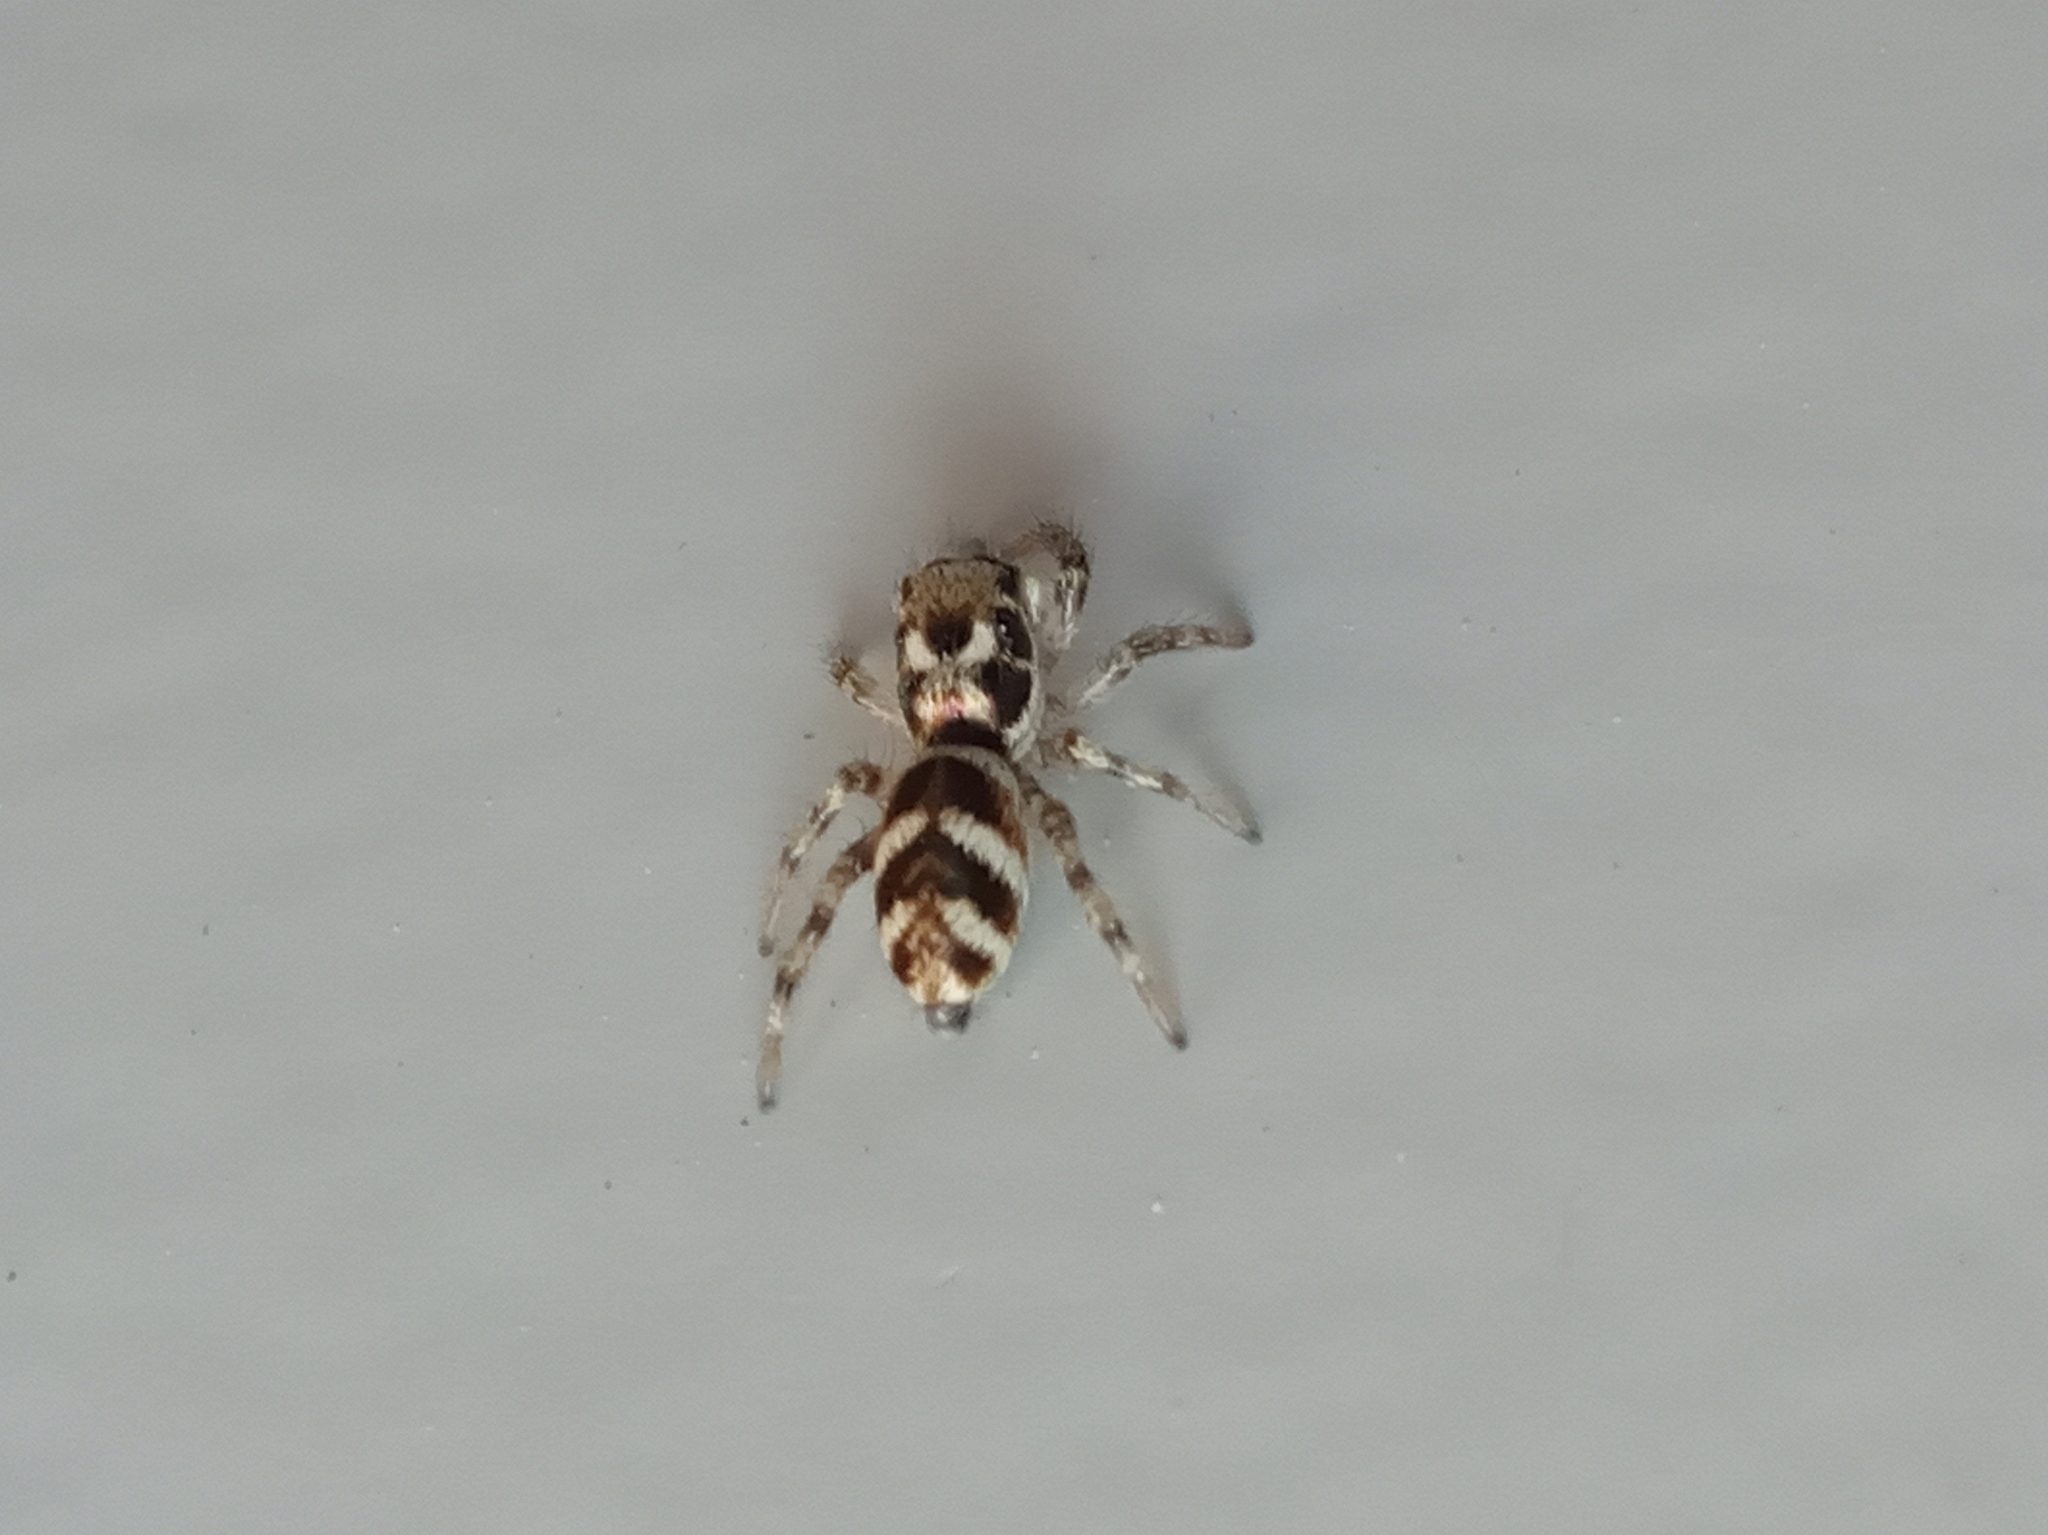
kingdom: Animalia
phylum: Arthropoda
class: Arachnida
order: Araneae
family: Salticidae
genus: Salticus
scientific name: Salticus scenicus
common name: Zebra jumper
